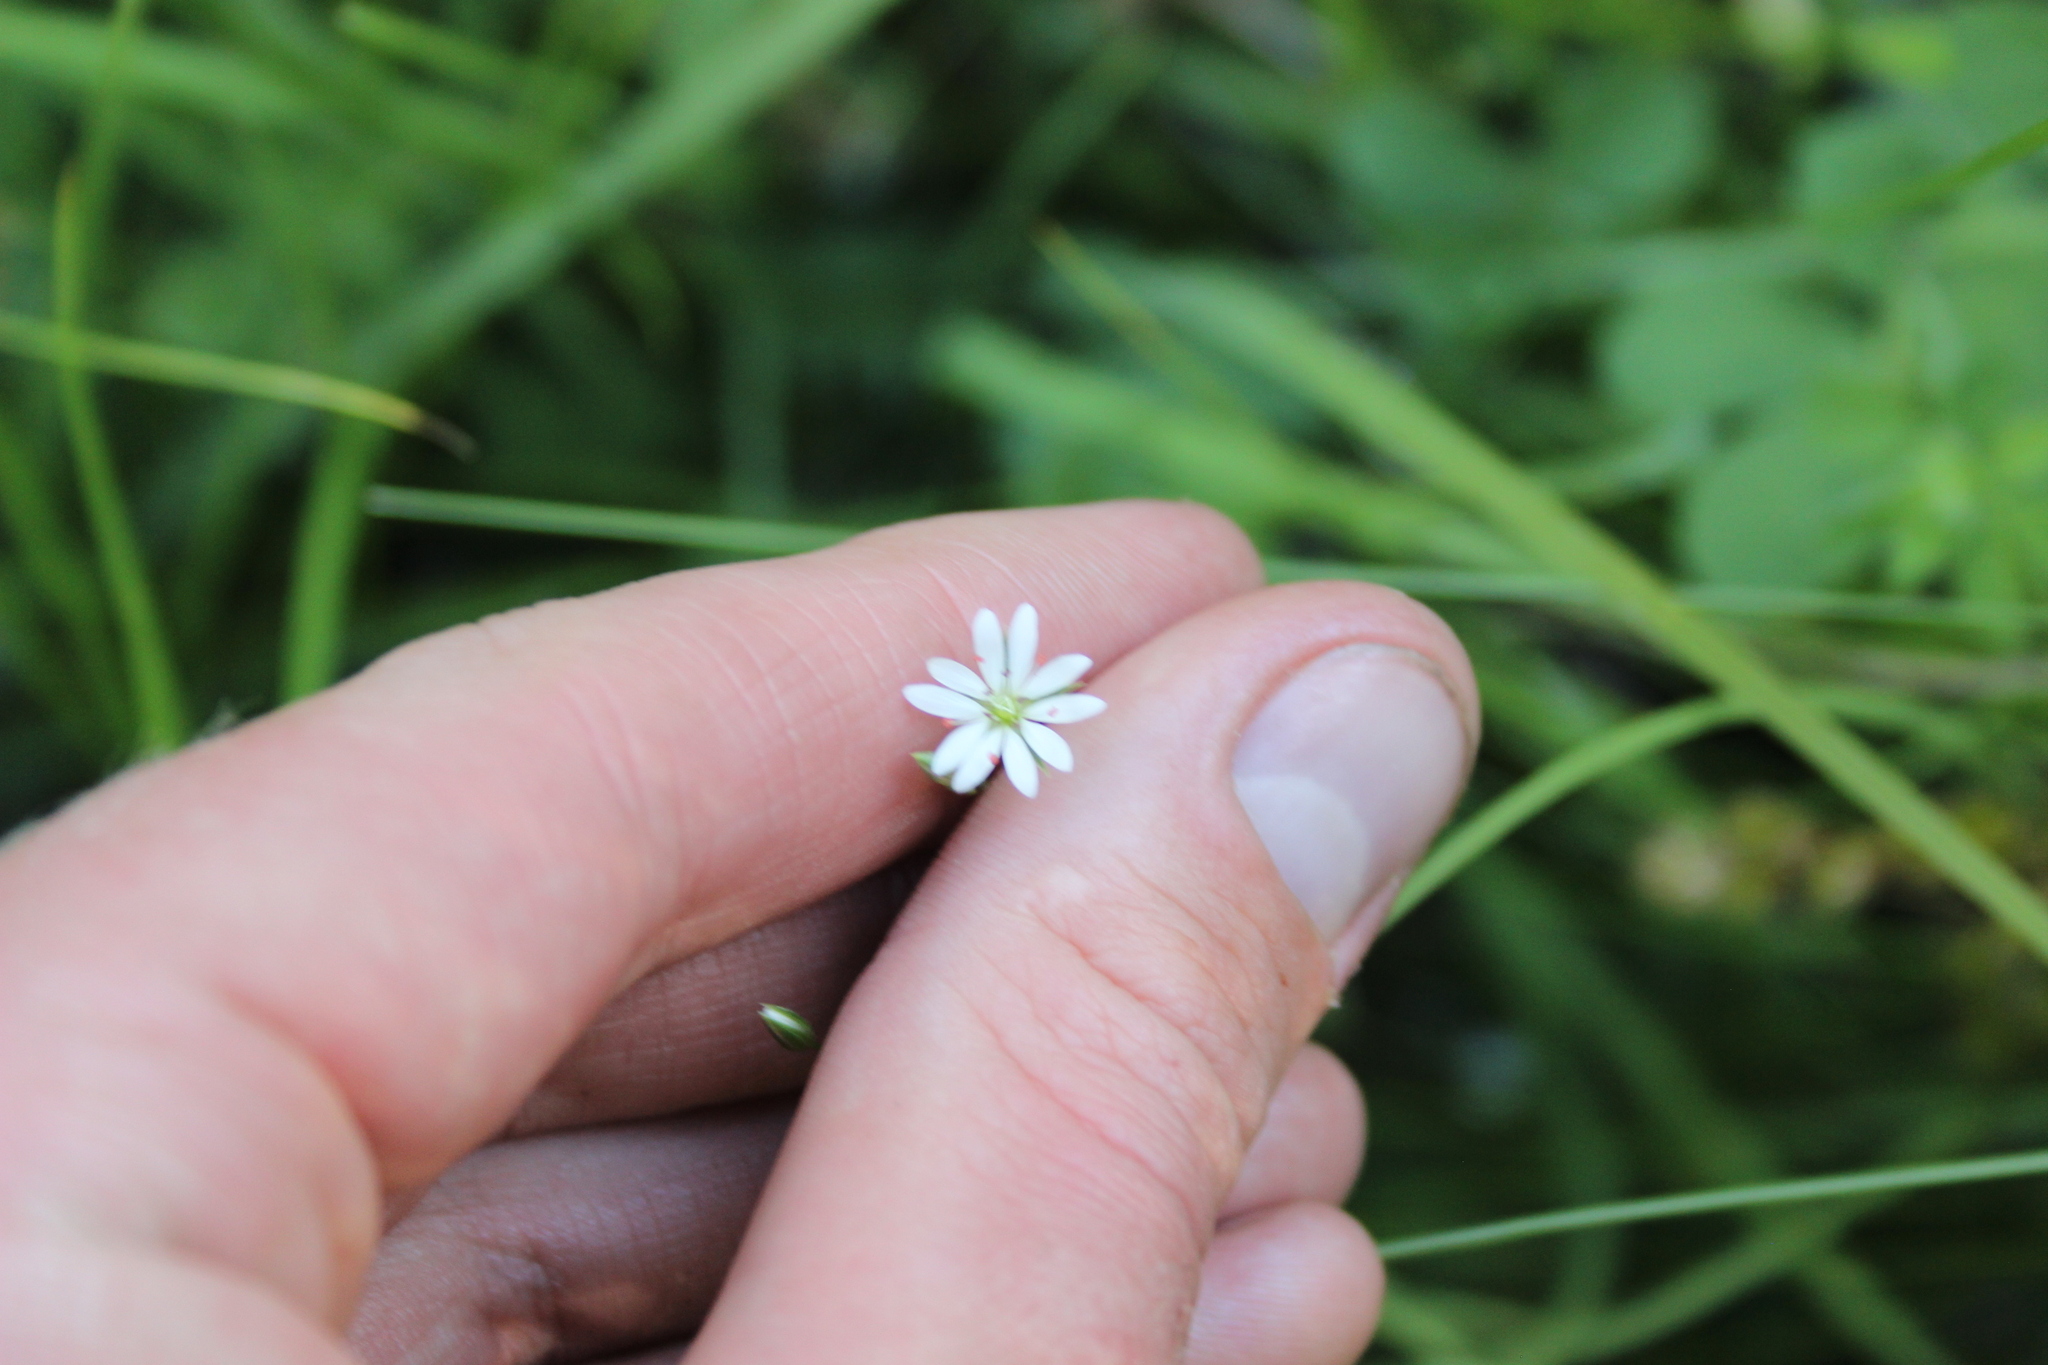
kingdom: Plantae
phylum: Tracheophyta
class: Magnoliopsida
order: Caryophyllales
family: Caryophyllaceae
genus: Stellaria
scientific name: Stellaria graminea
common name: Grass-like starwort
